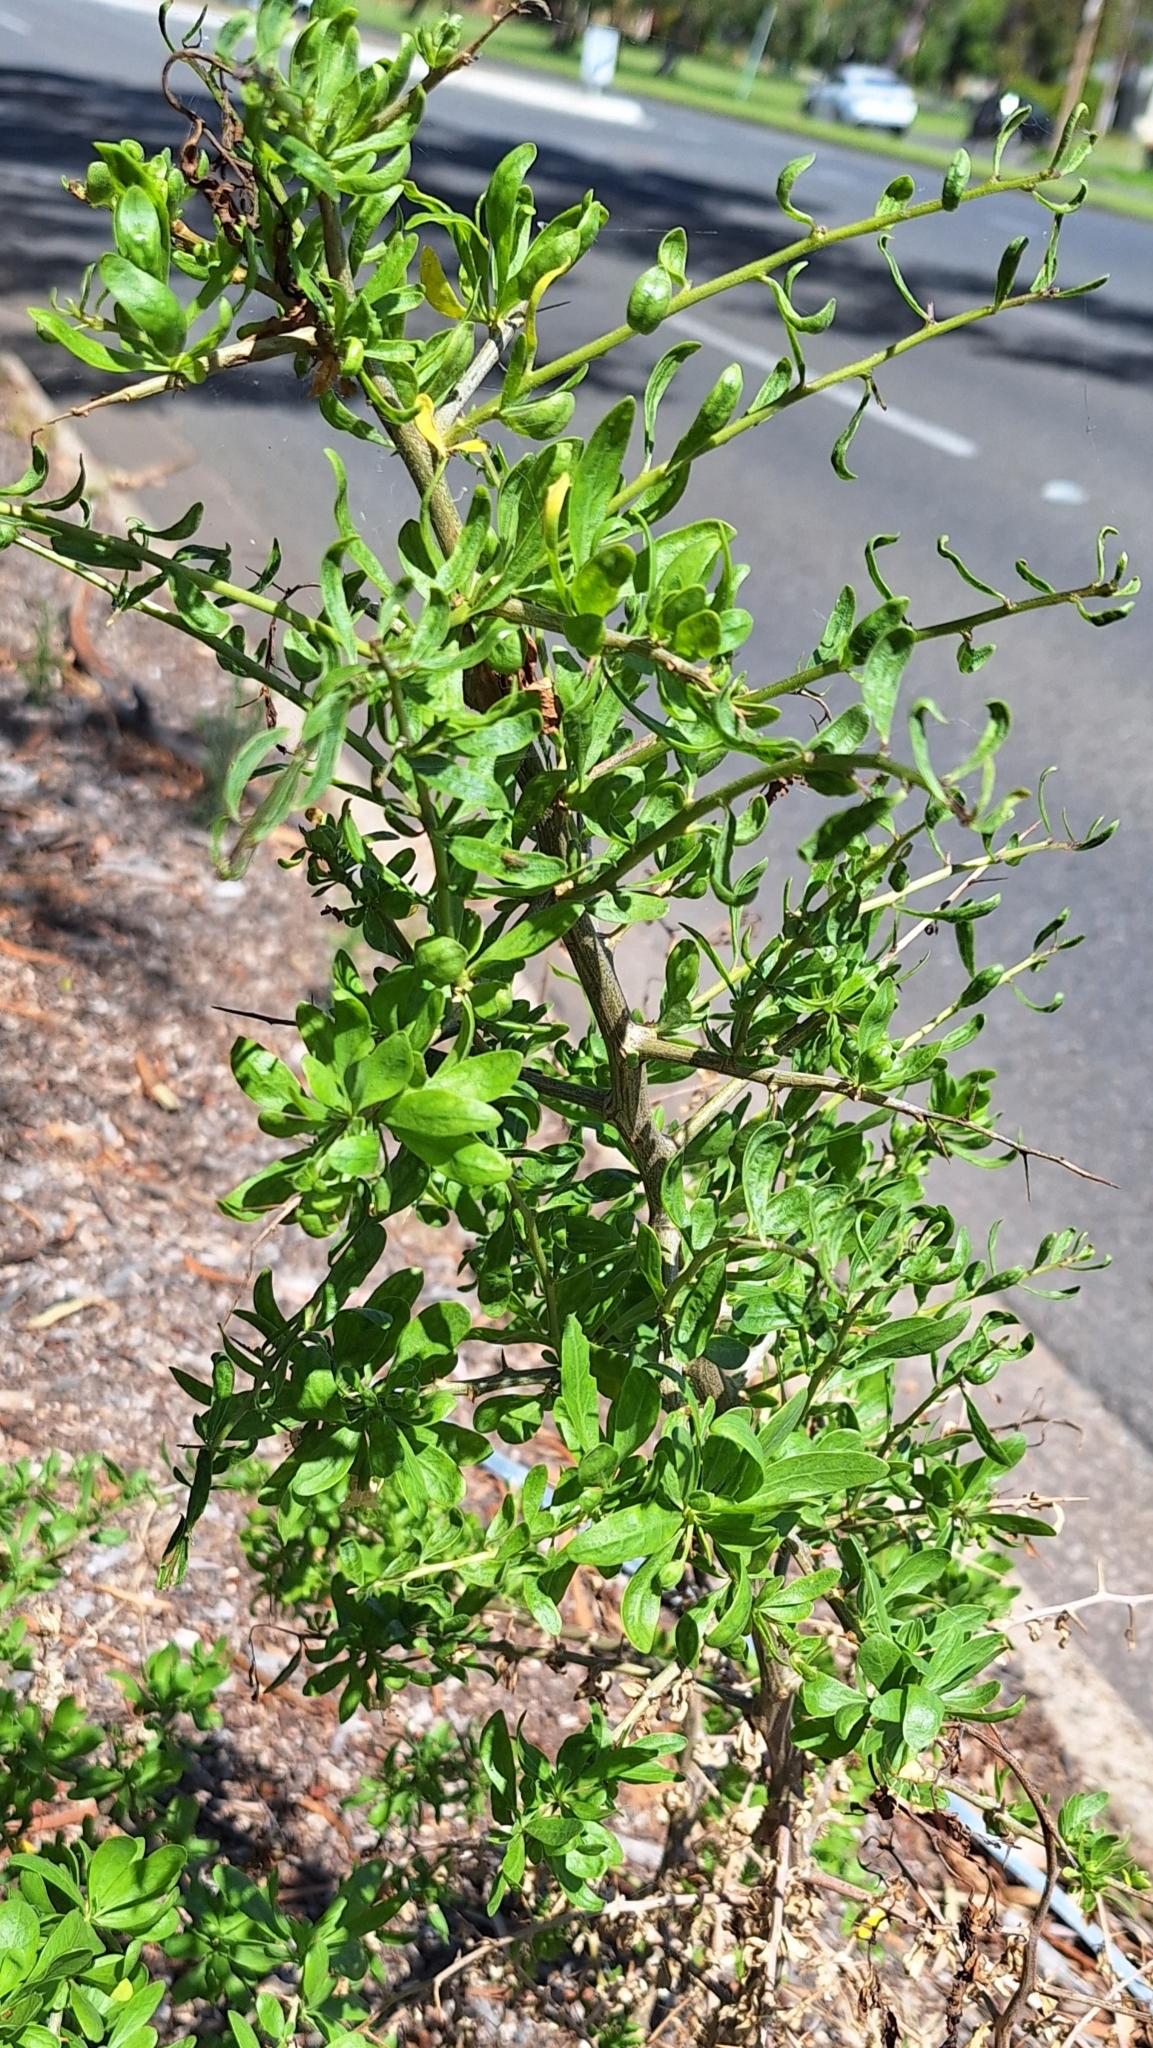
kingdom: Plantae
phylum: Tracheophyta
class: Magnoliopsida
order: Solanales
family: Solanaceae
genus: Lycium
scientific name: Lycium ferocissimum
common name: African boxthorn
